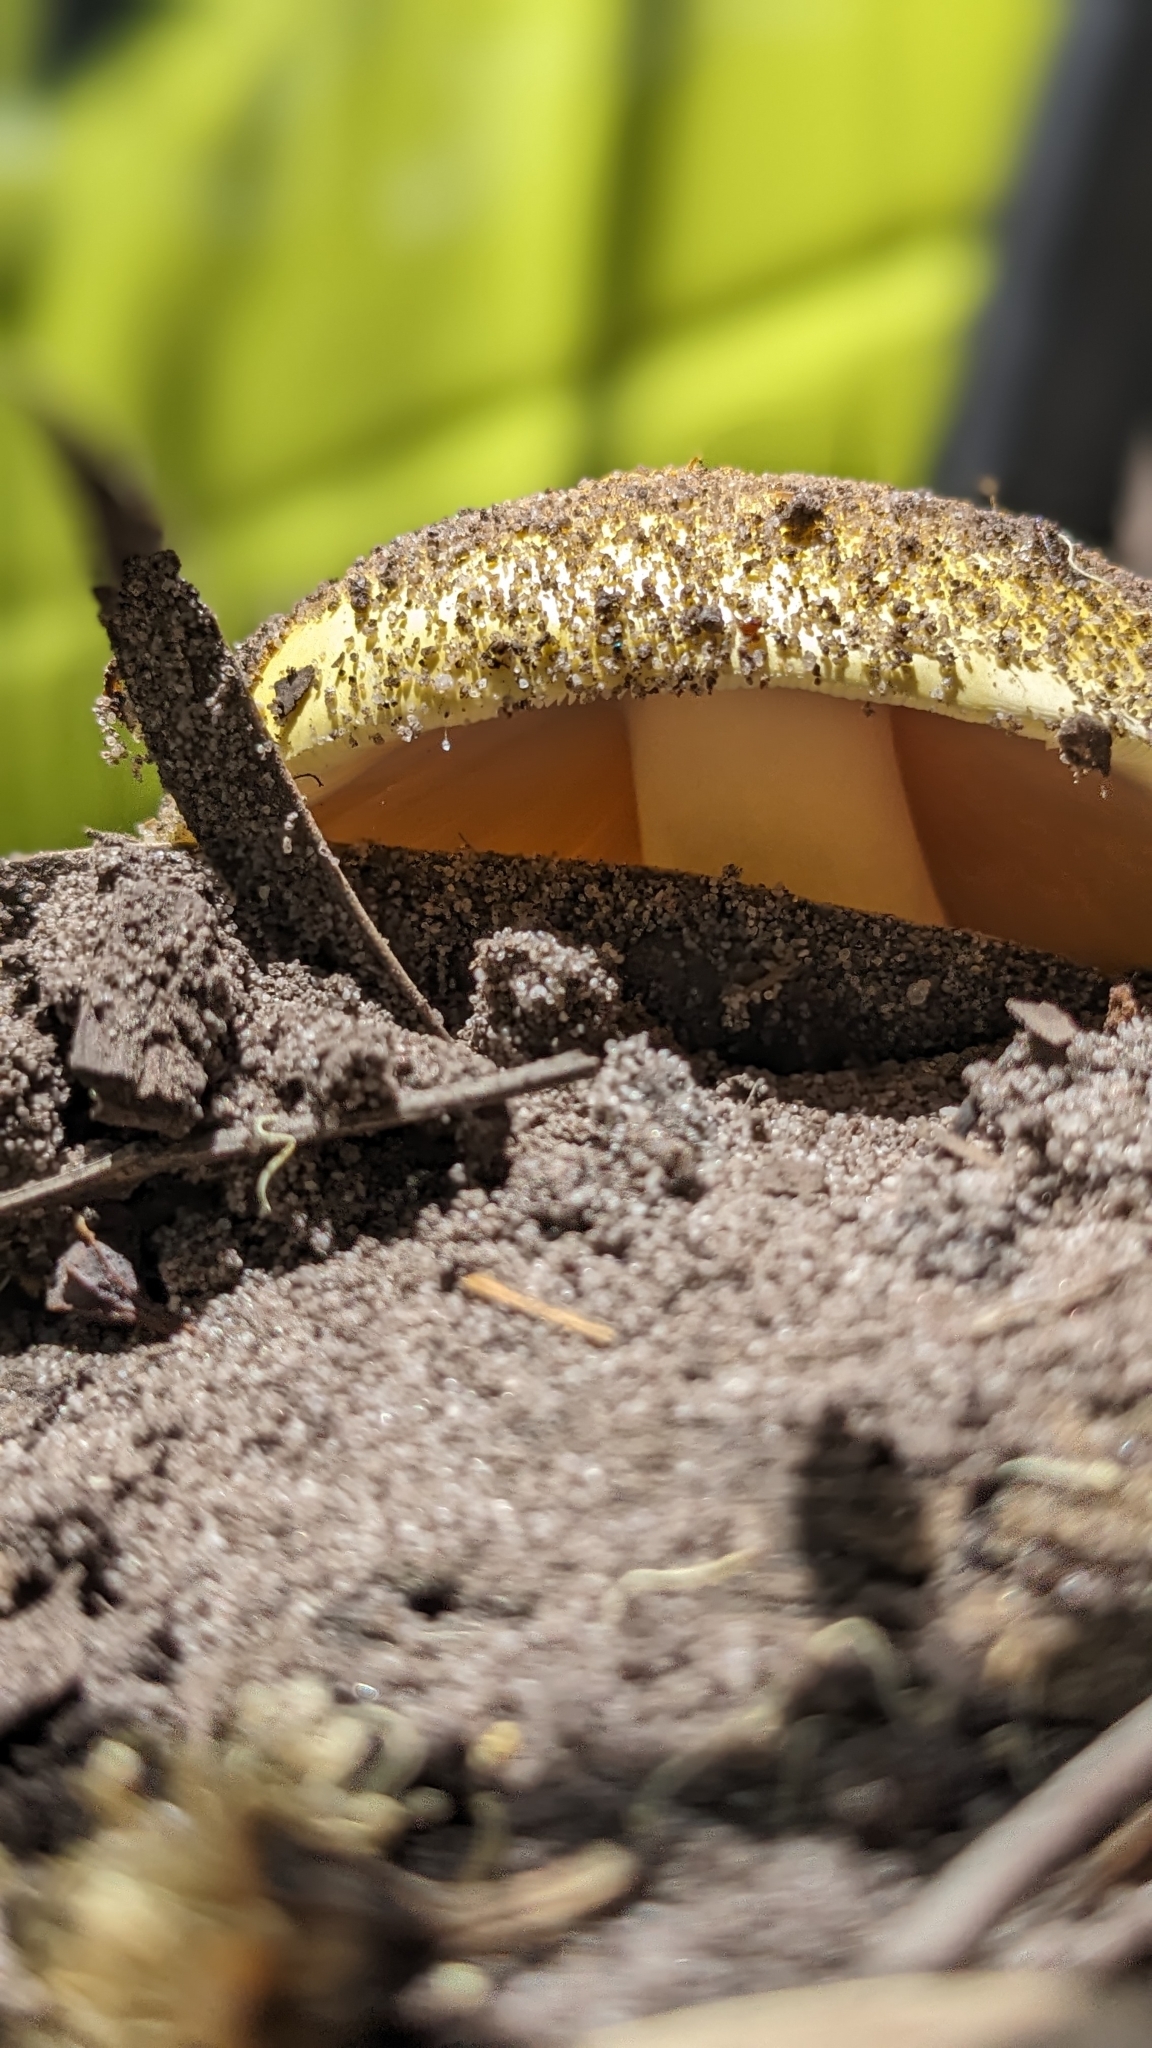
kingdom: Fungi
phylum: Basidiomycota
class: Agaricomycetes
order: Agaricales
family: Amanitaceae
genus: Amanita
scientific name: Amanita flavella
